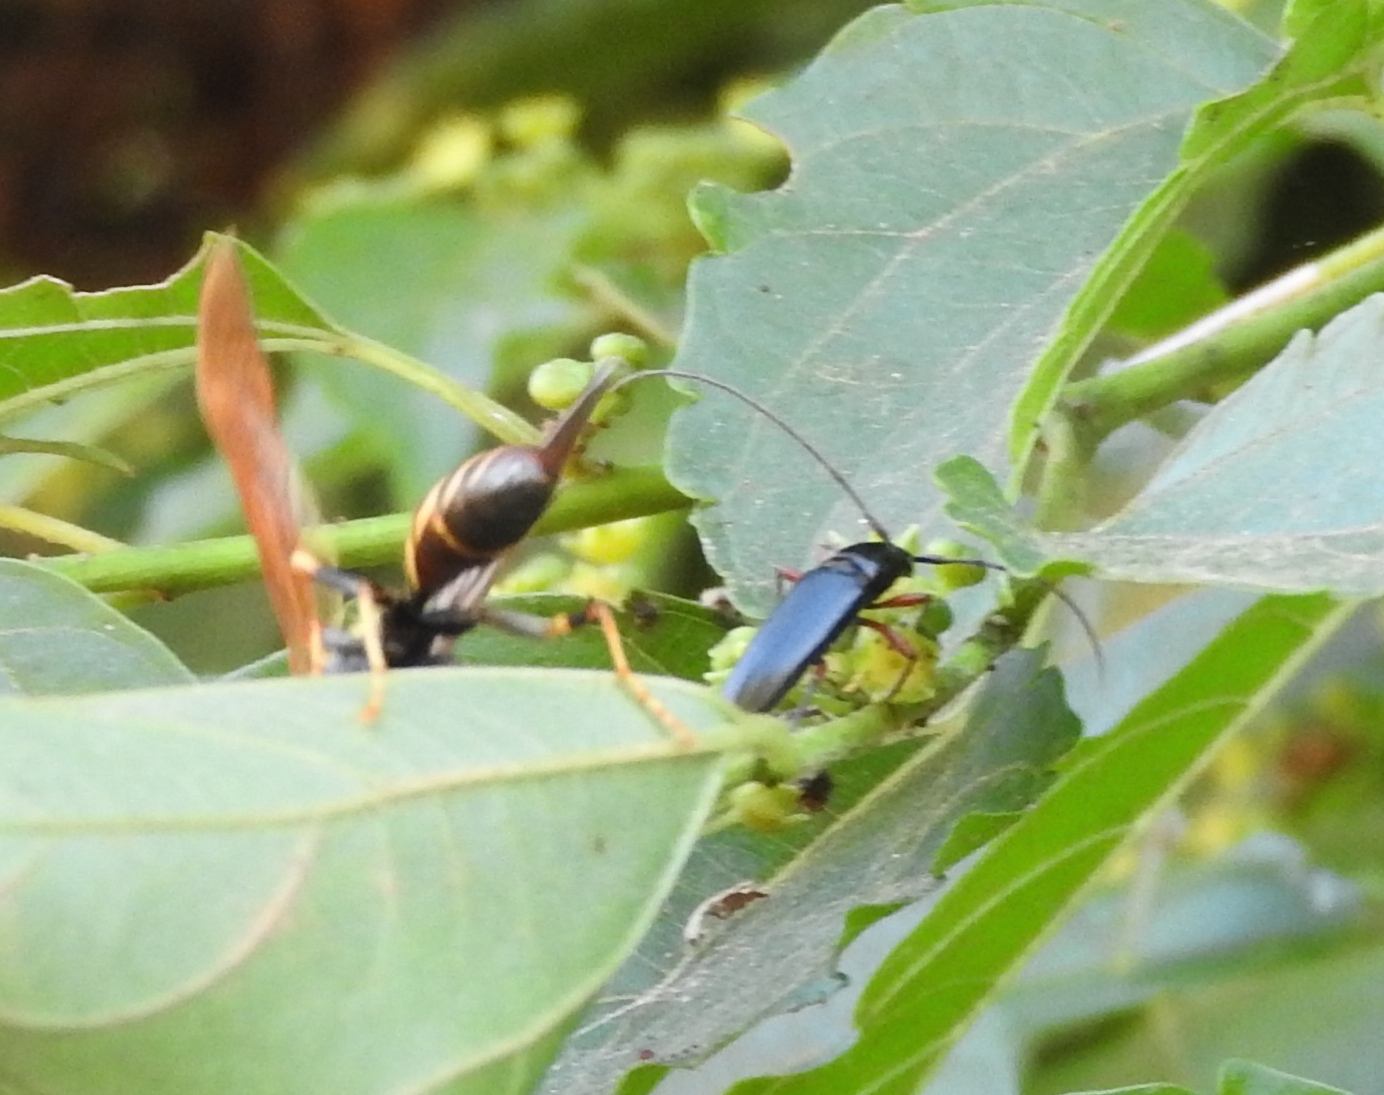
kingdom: Animalia
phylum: Arthropoda
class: Insecta
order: Coleoptera
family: Cerambycidae
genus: Stenosphenus
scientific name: Stenosphenus
